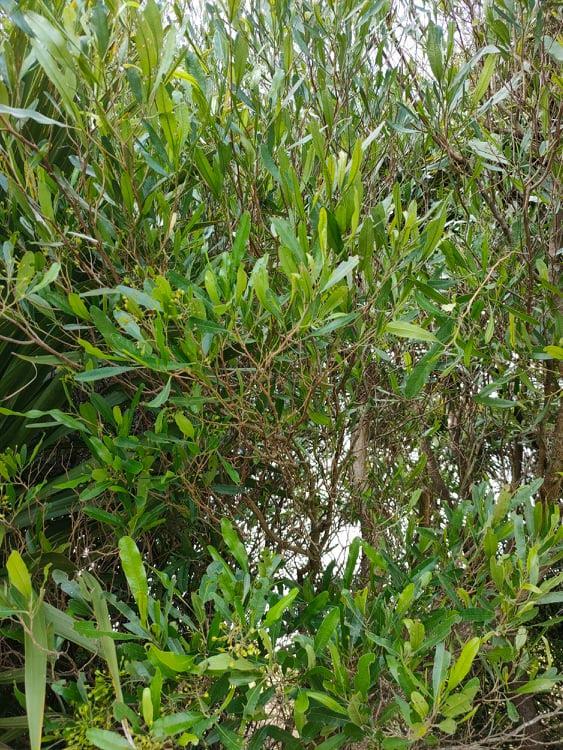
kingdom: Plantae
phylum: Tracheophyta
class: Magnoliopsida
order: Sapindales
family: Sapindaceae
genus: Dodonaea
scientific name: Dodonaea viscosa
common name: Hopbush
